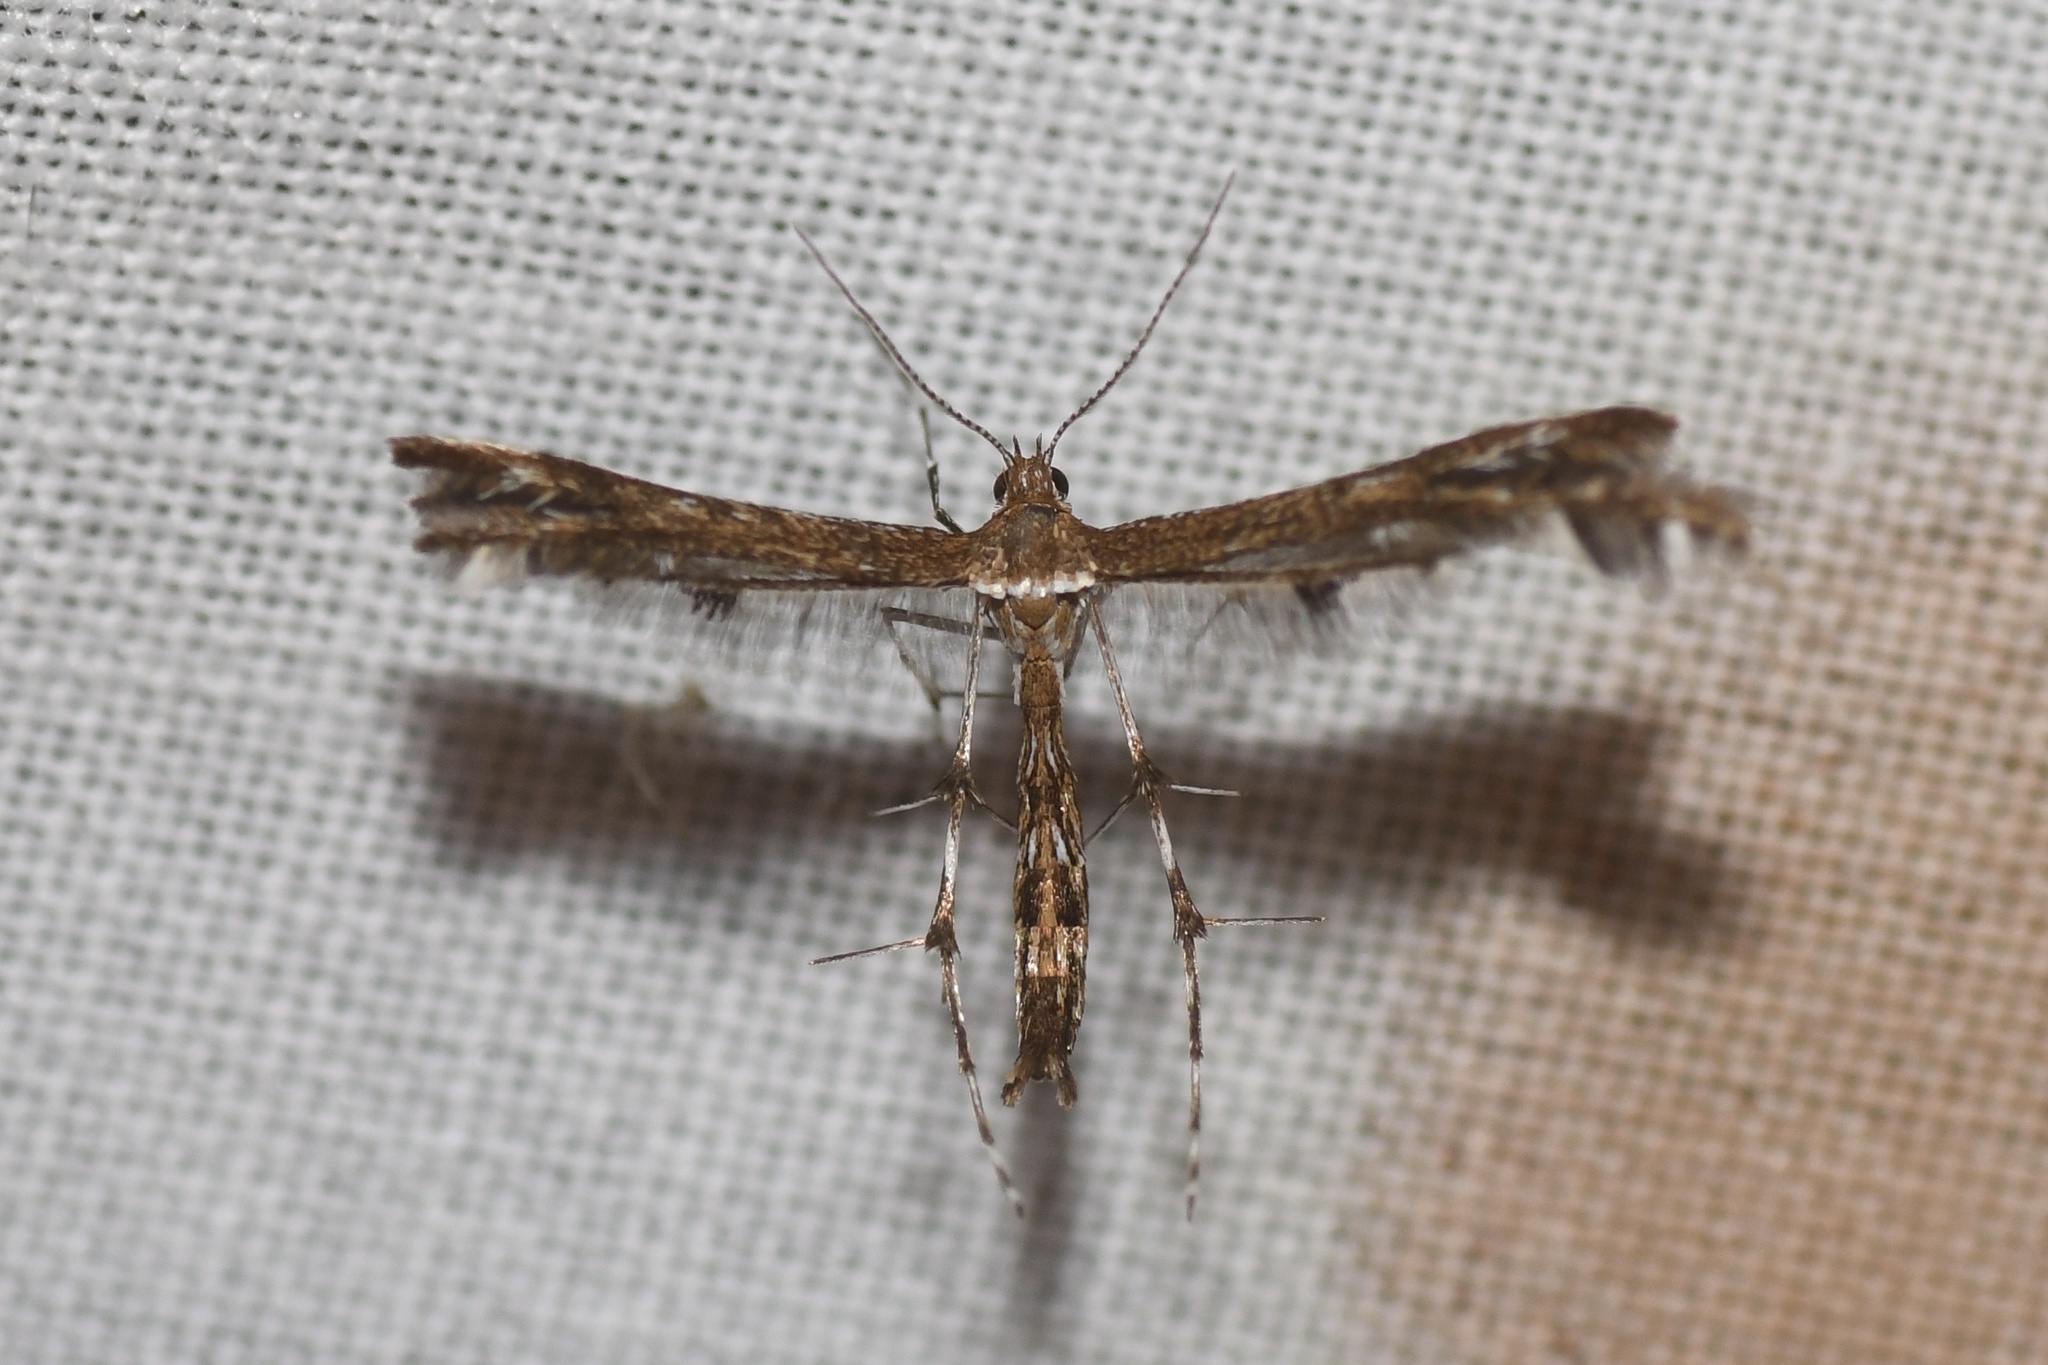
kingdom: Animalia
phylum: Arthropoda
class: Insecta
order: Lepidoptera
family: Pterophoridae
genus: Dejongia
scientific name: Dejongia lobidactylus
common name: Lobed plume moth
